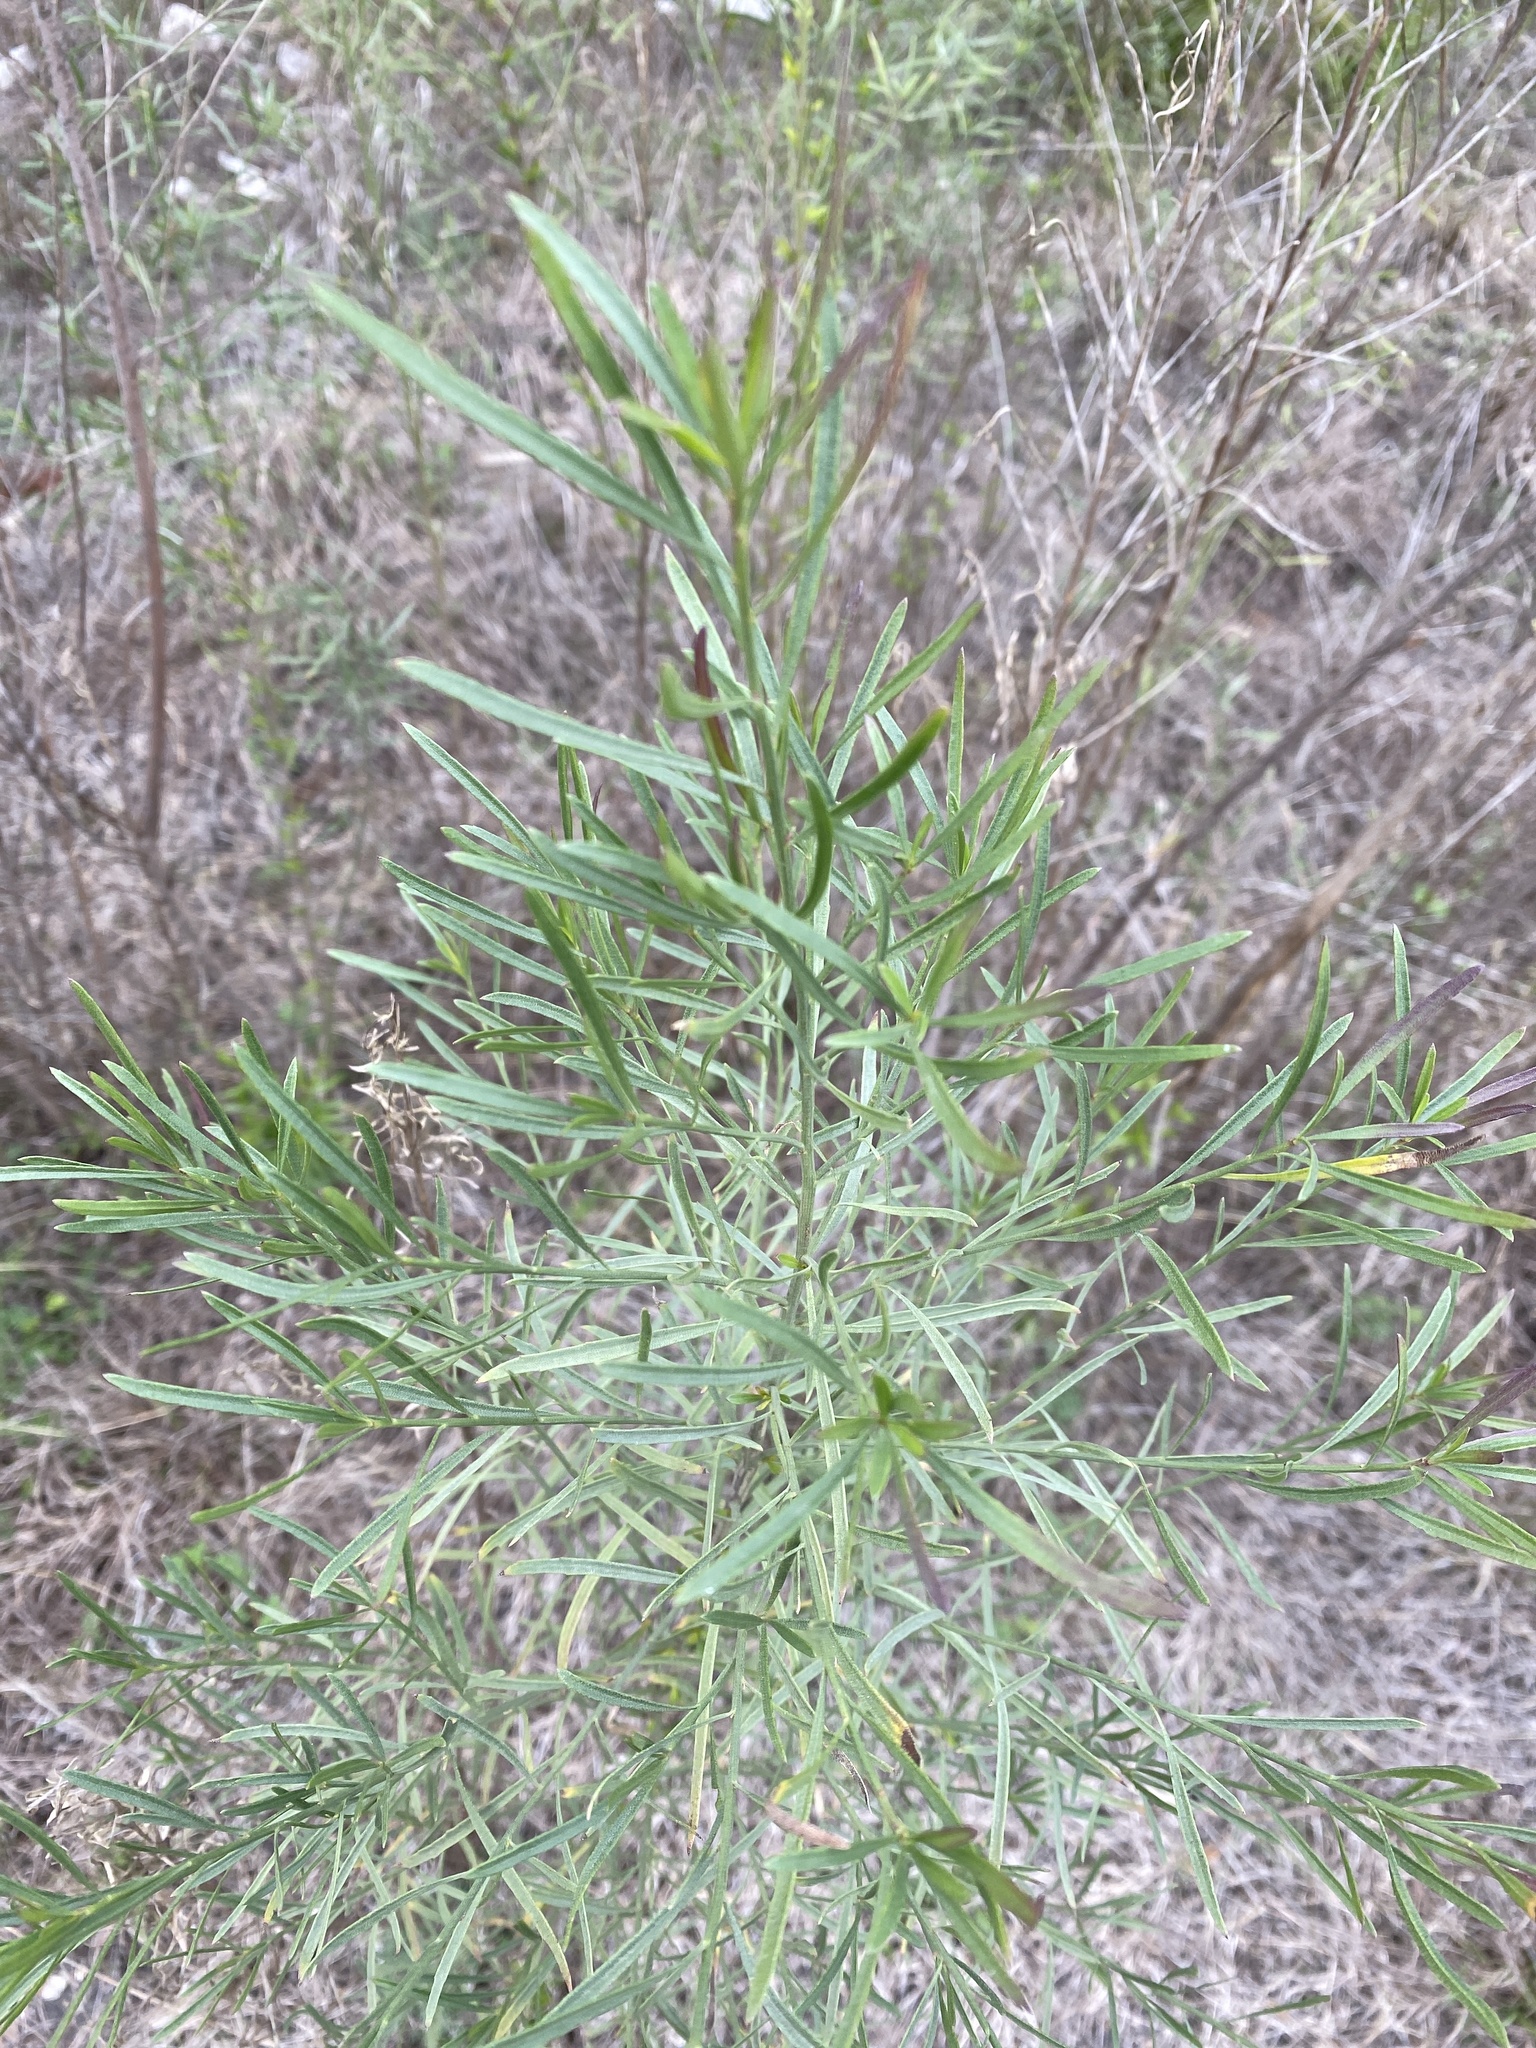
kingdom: Plantae
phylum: Tracheophyta
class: Magnoliopsida
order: Asterales
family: Asteraceae
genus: Baccharis
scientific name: Baccharis neglecta
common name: Roosevelt-weed
